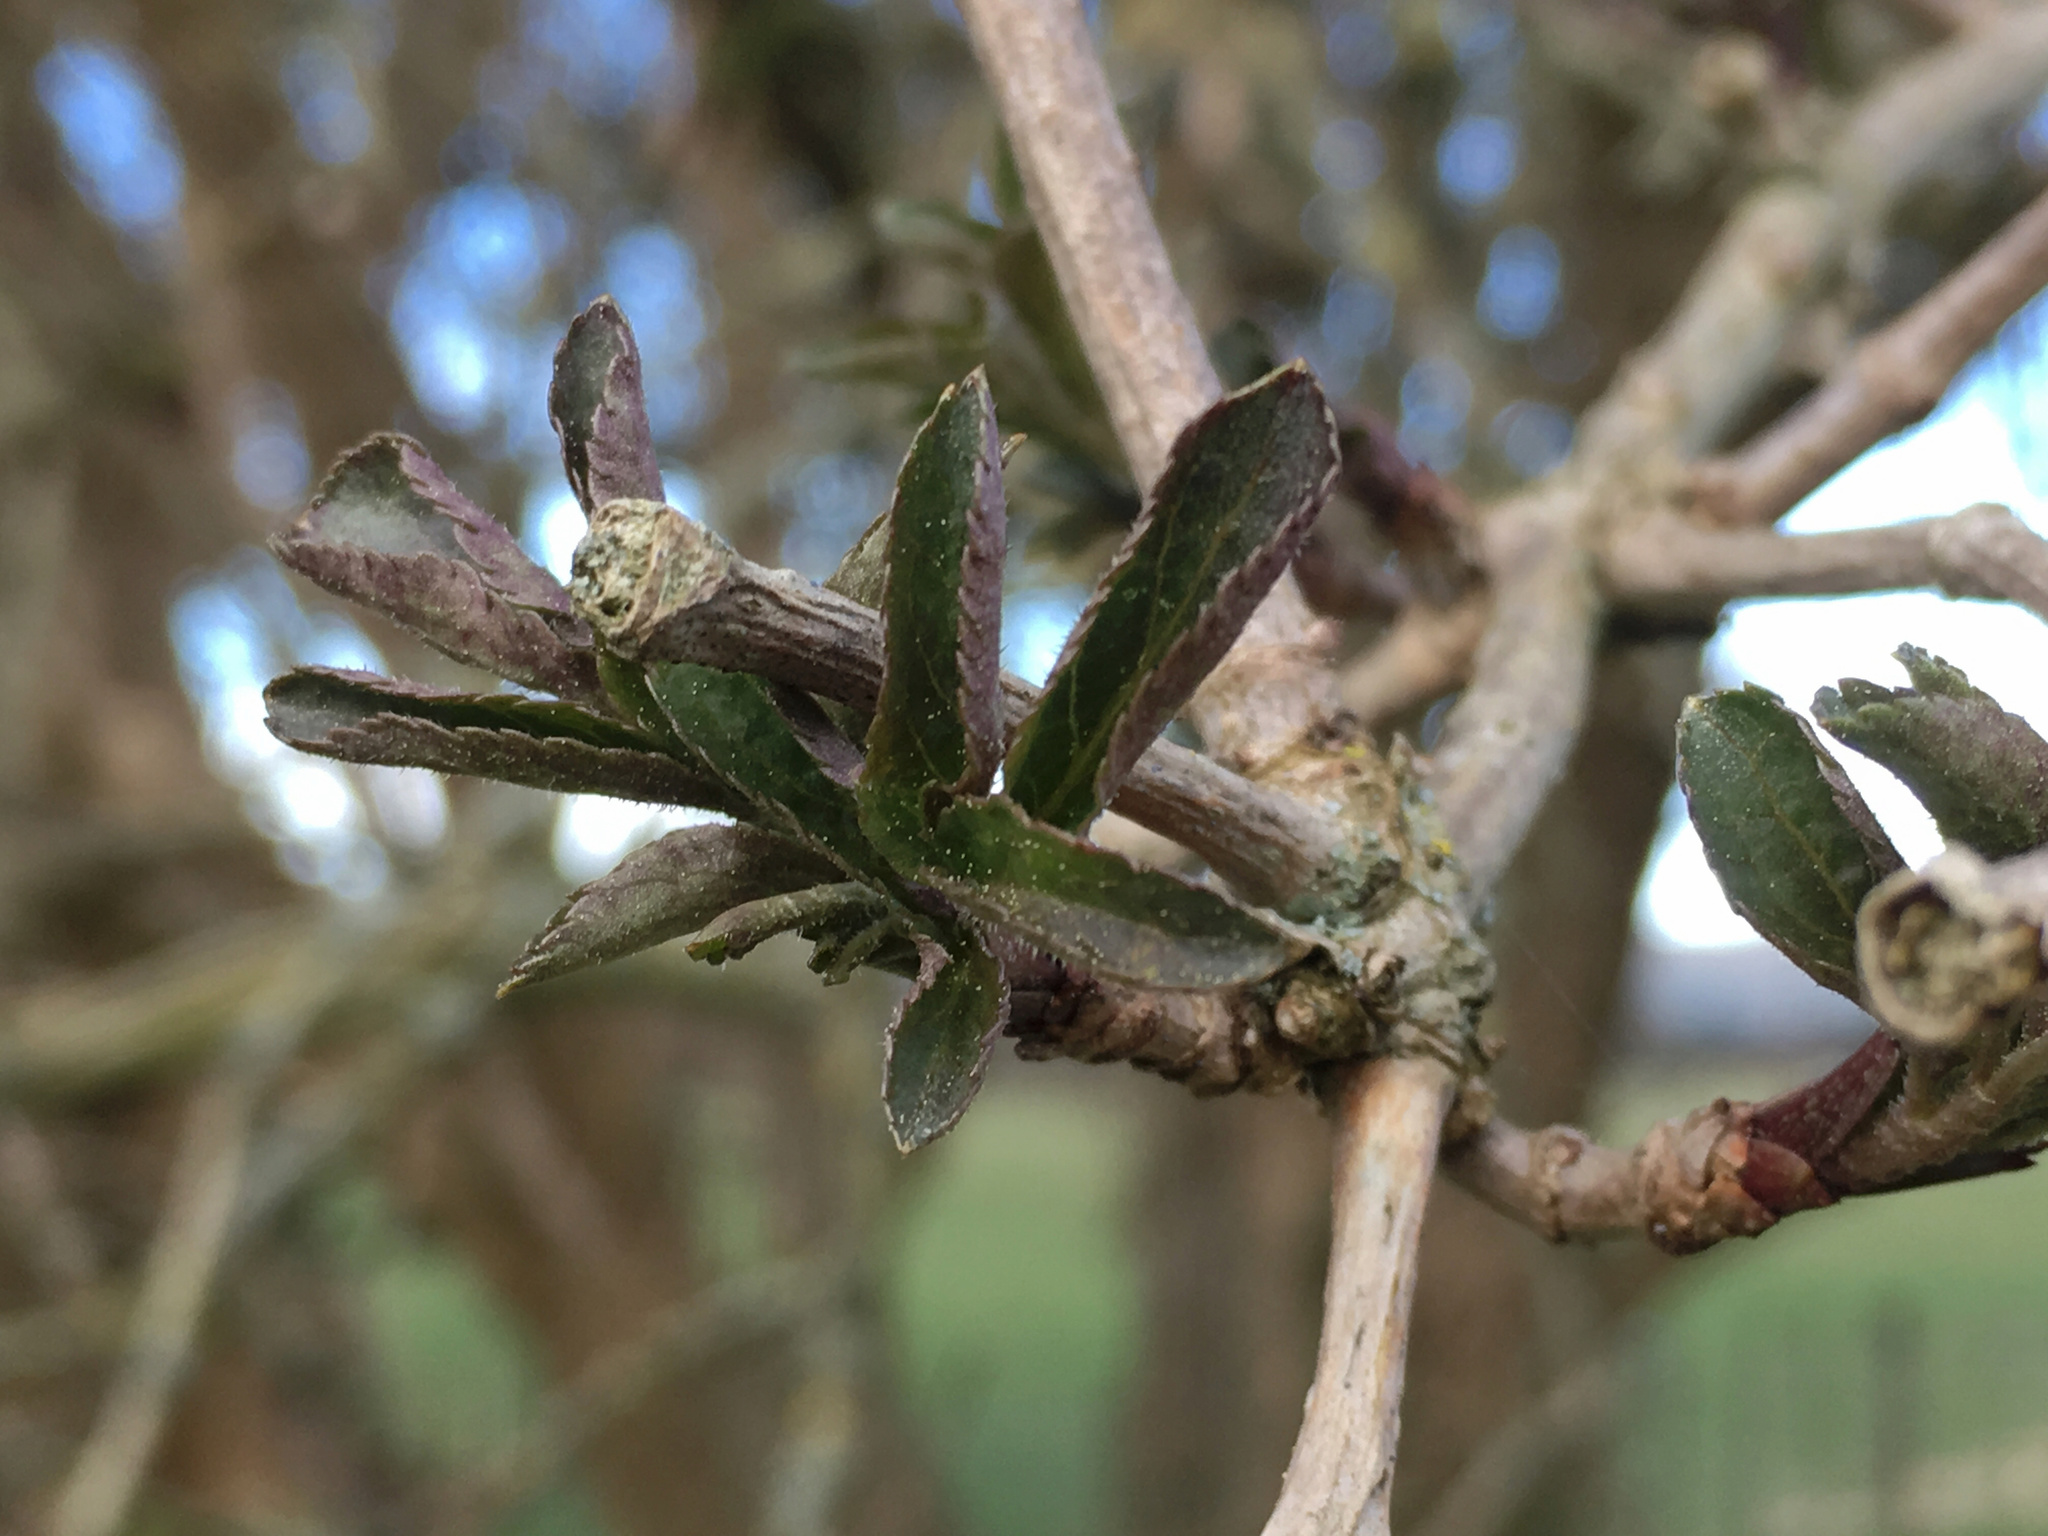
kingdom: Plantae
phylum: Tracheophyta
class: Magnoliopsida
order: Dipsacales
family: Viburnaceae
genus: Sambucus
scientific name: Sambucus nigra
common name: Elder
